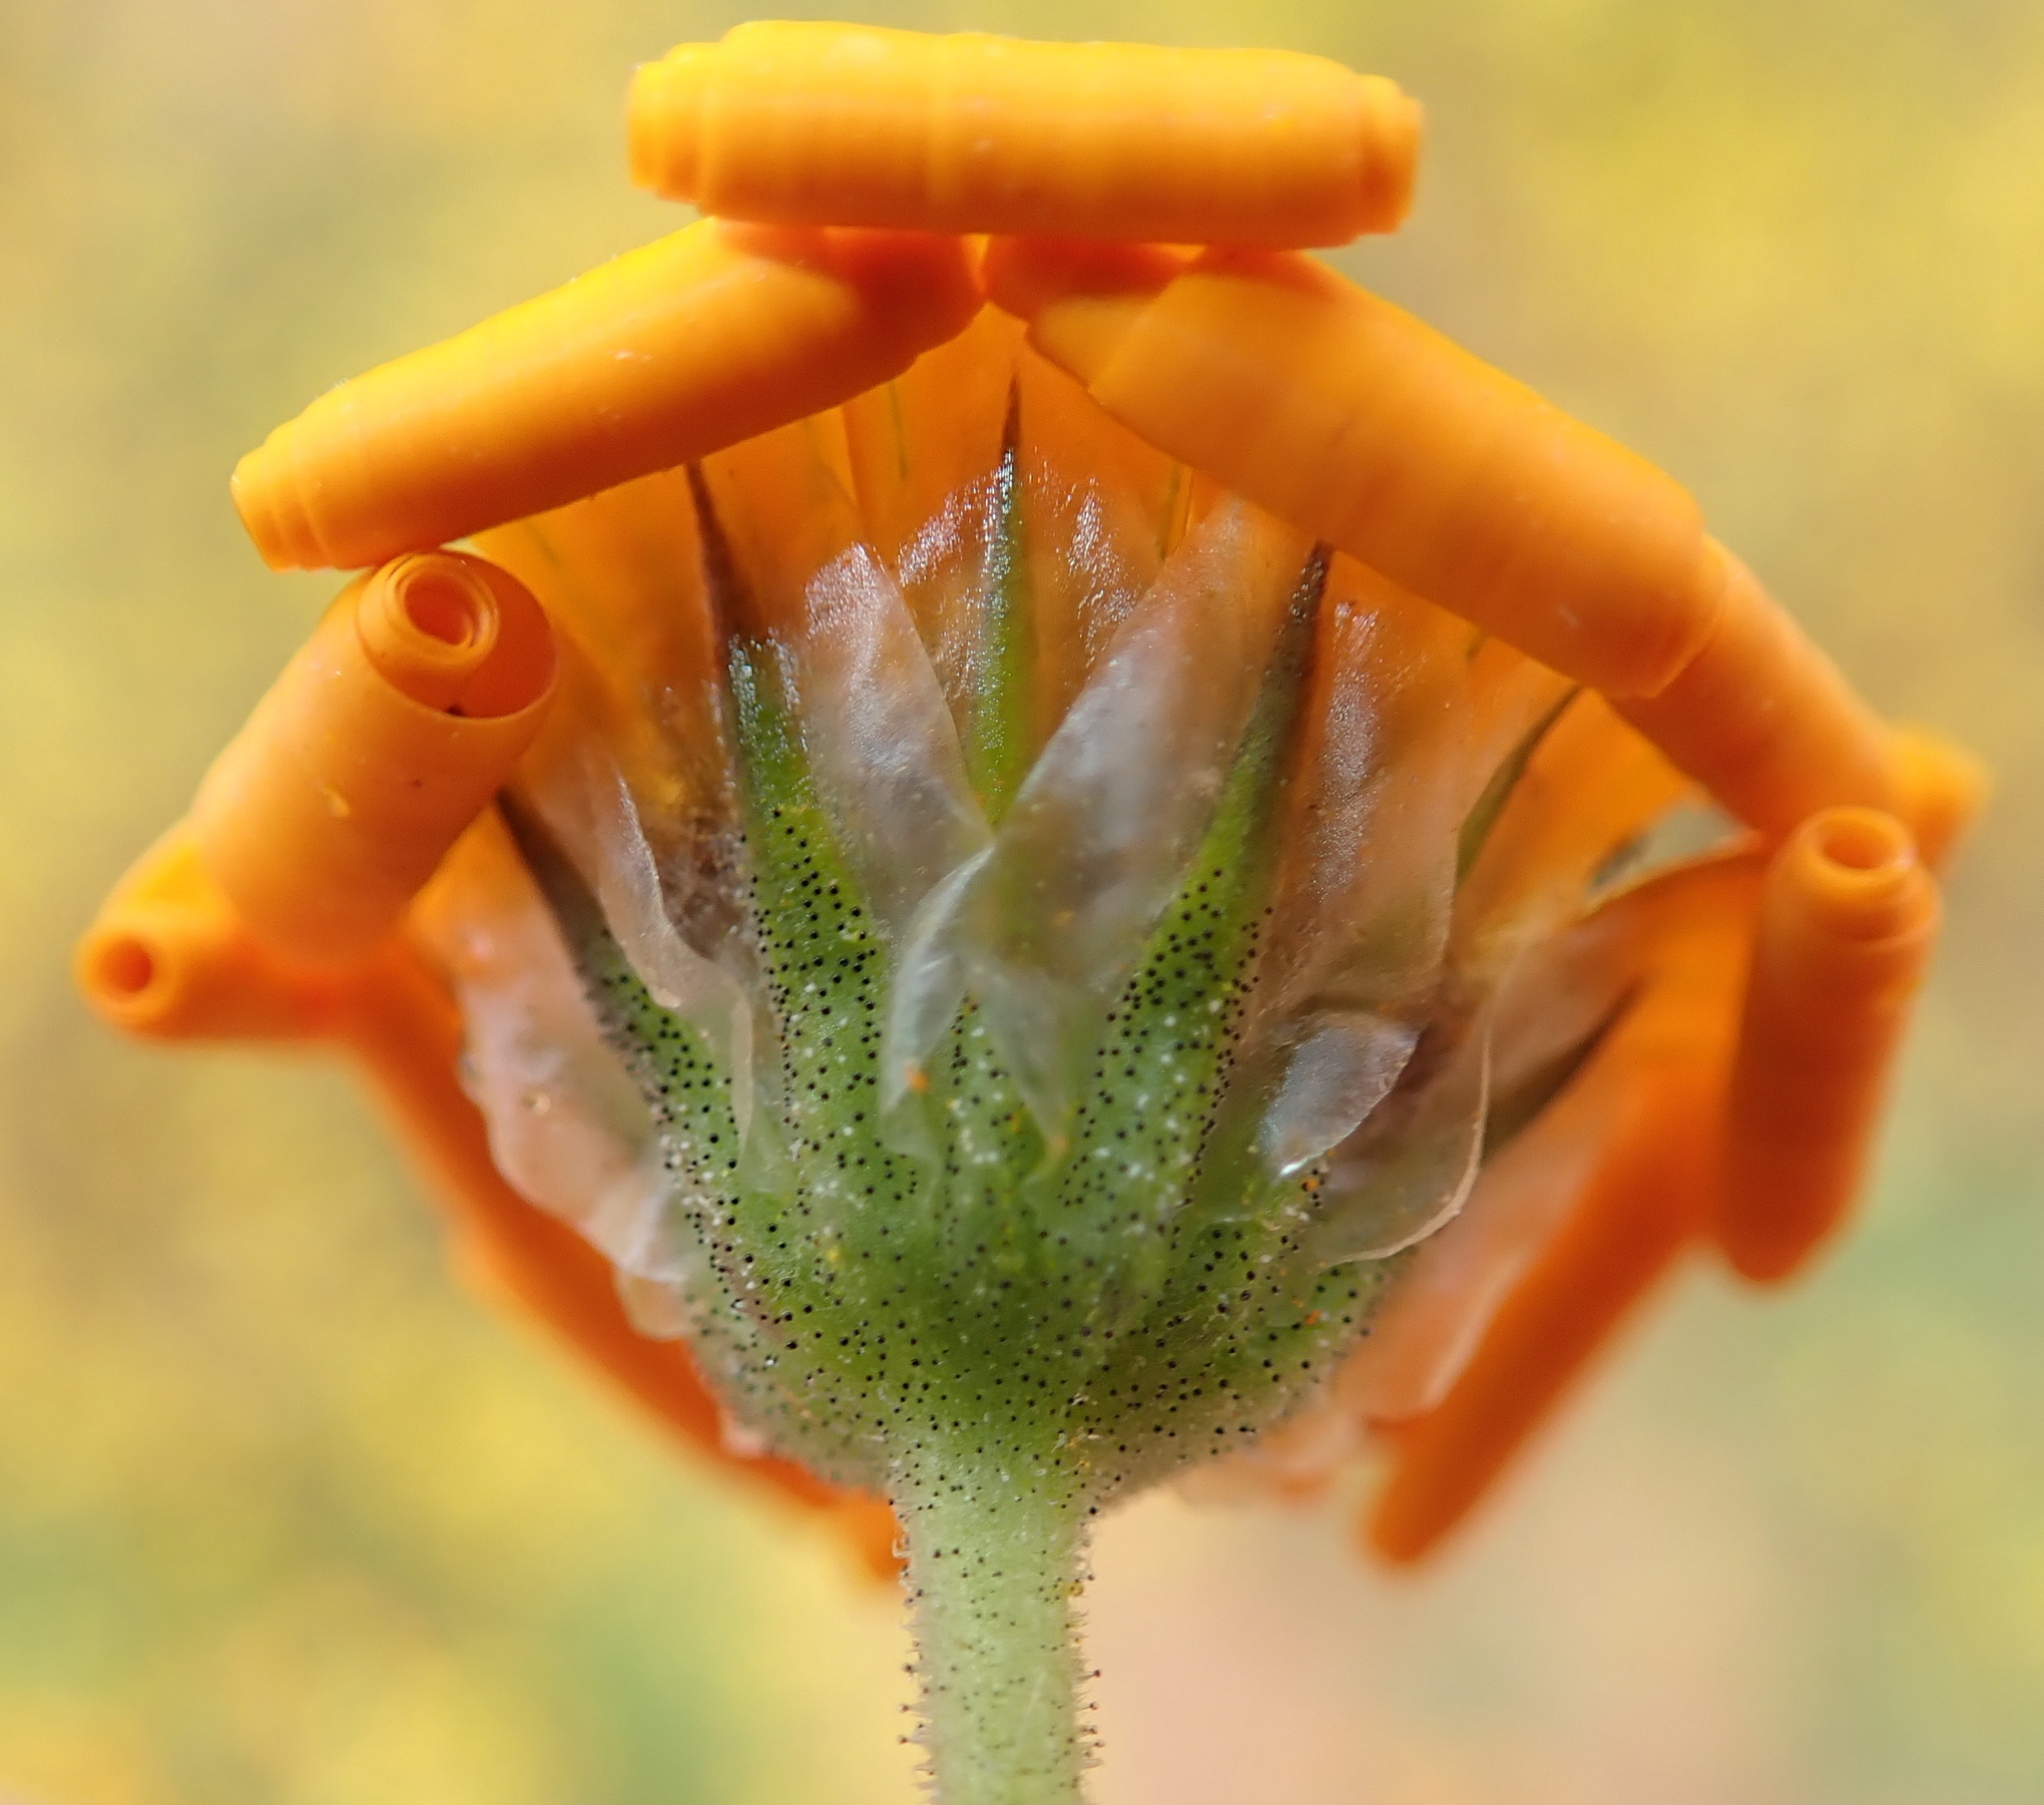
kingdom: Plantae
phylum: Tracheophyta
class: Magnoliopsida
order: Asterales
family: Asteraceae
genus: Osteospermum
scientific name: Osteospermum hyoseroides
